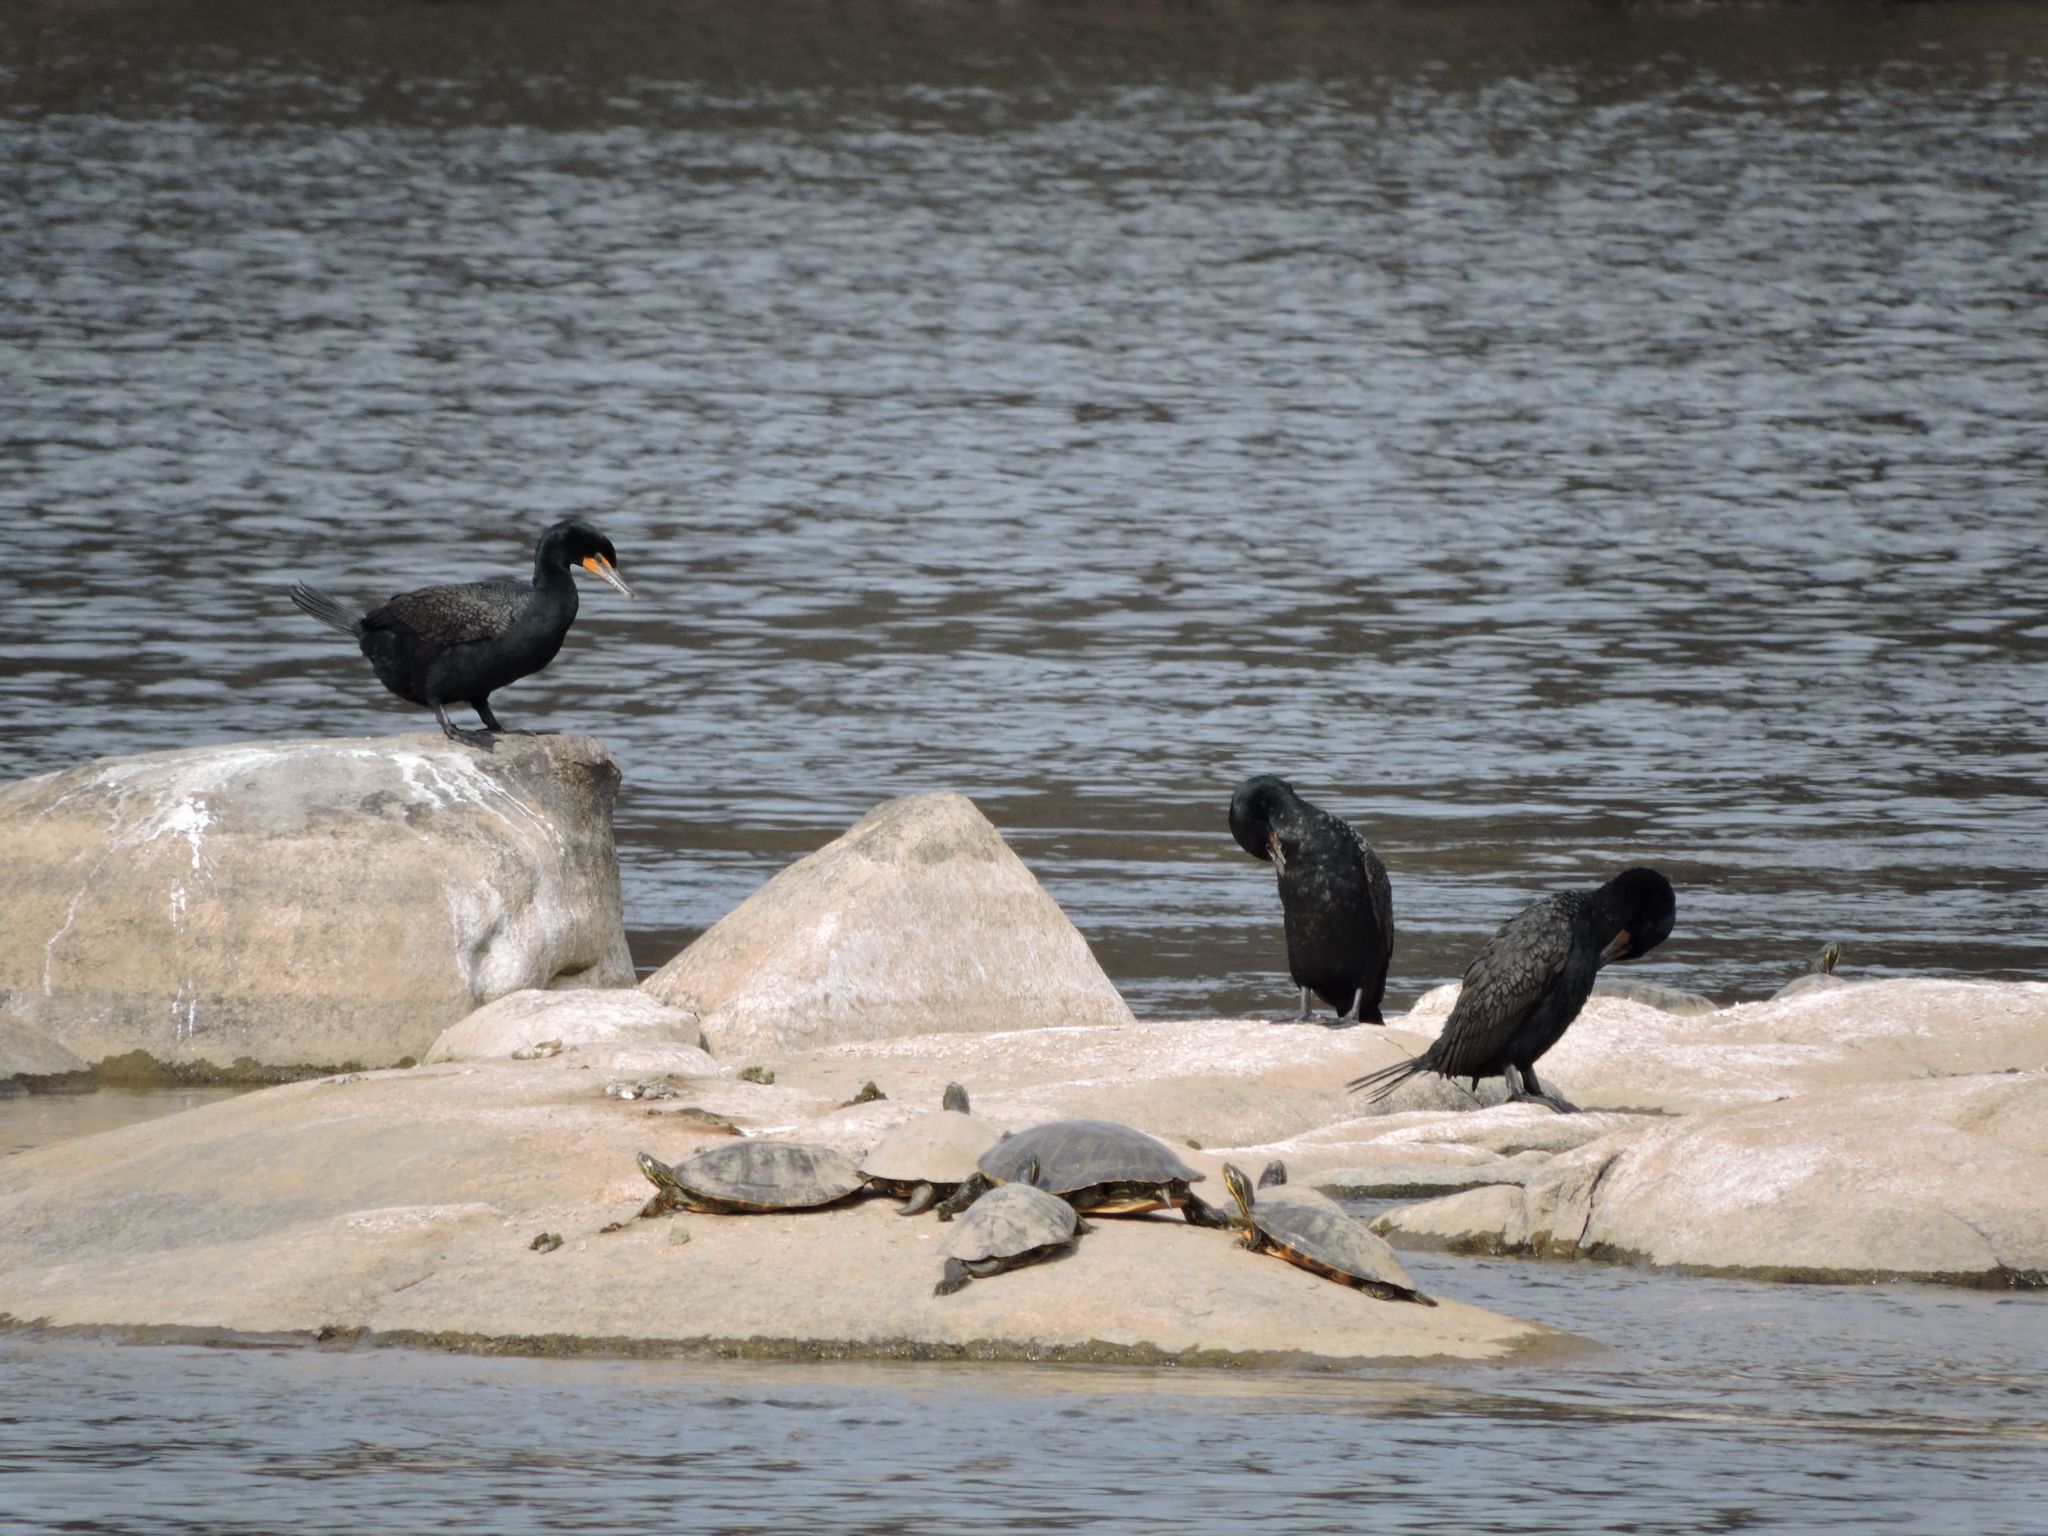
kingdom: Animalia
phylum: Chordata
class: Aves
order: Suliformes
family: Phalacrocoracidae
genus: Phalacrocorax
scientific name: Phalacrocorax auritus
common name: Double-crested cormorant
